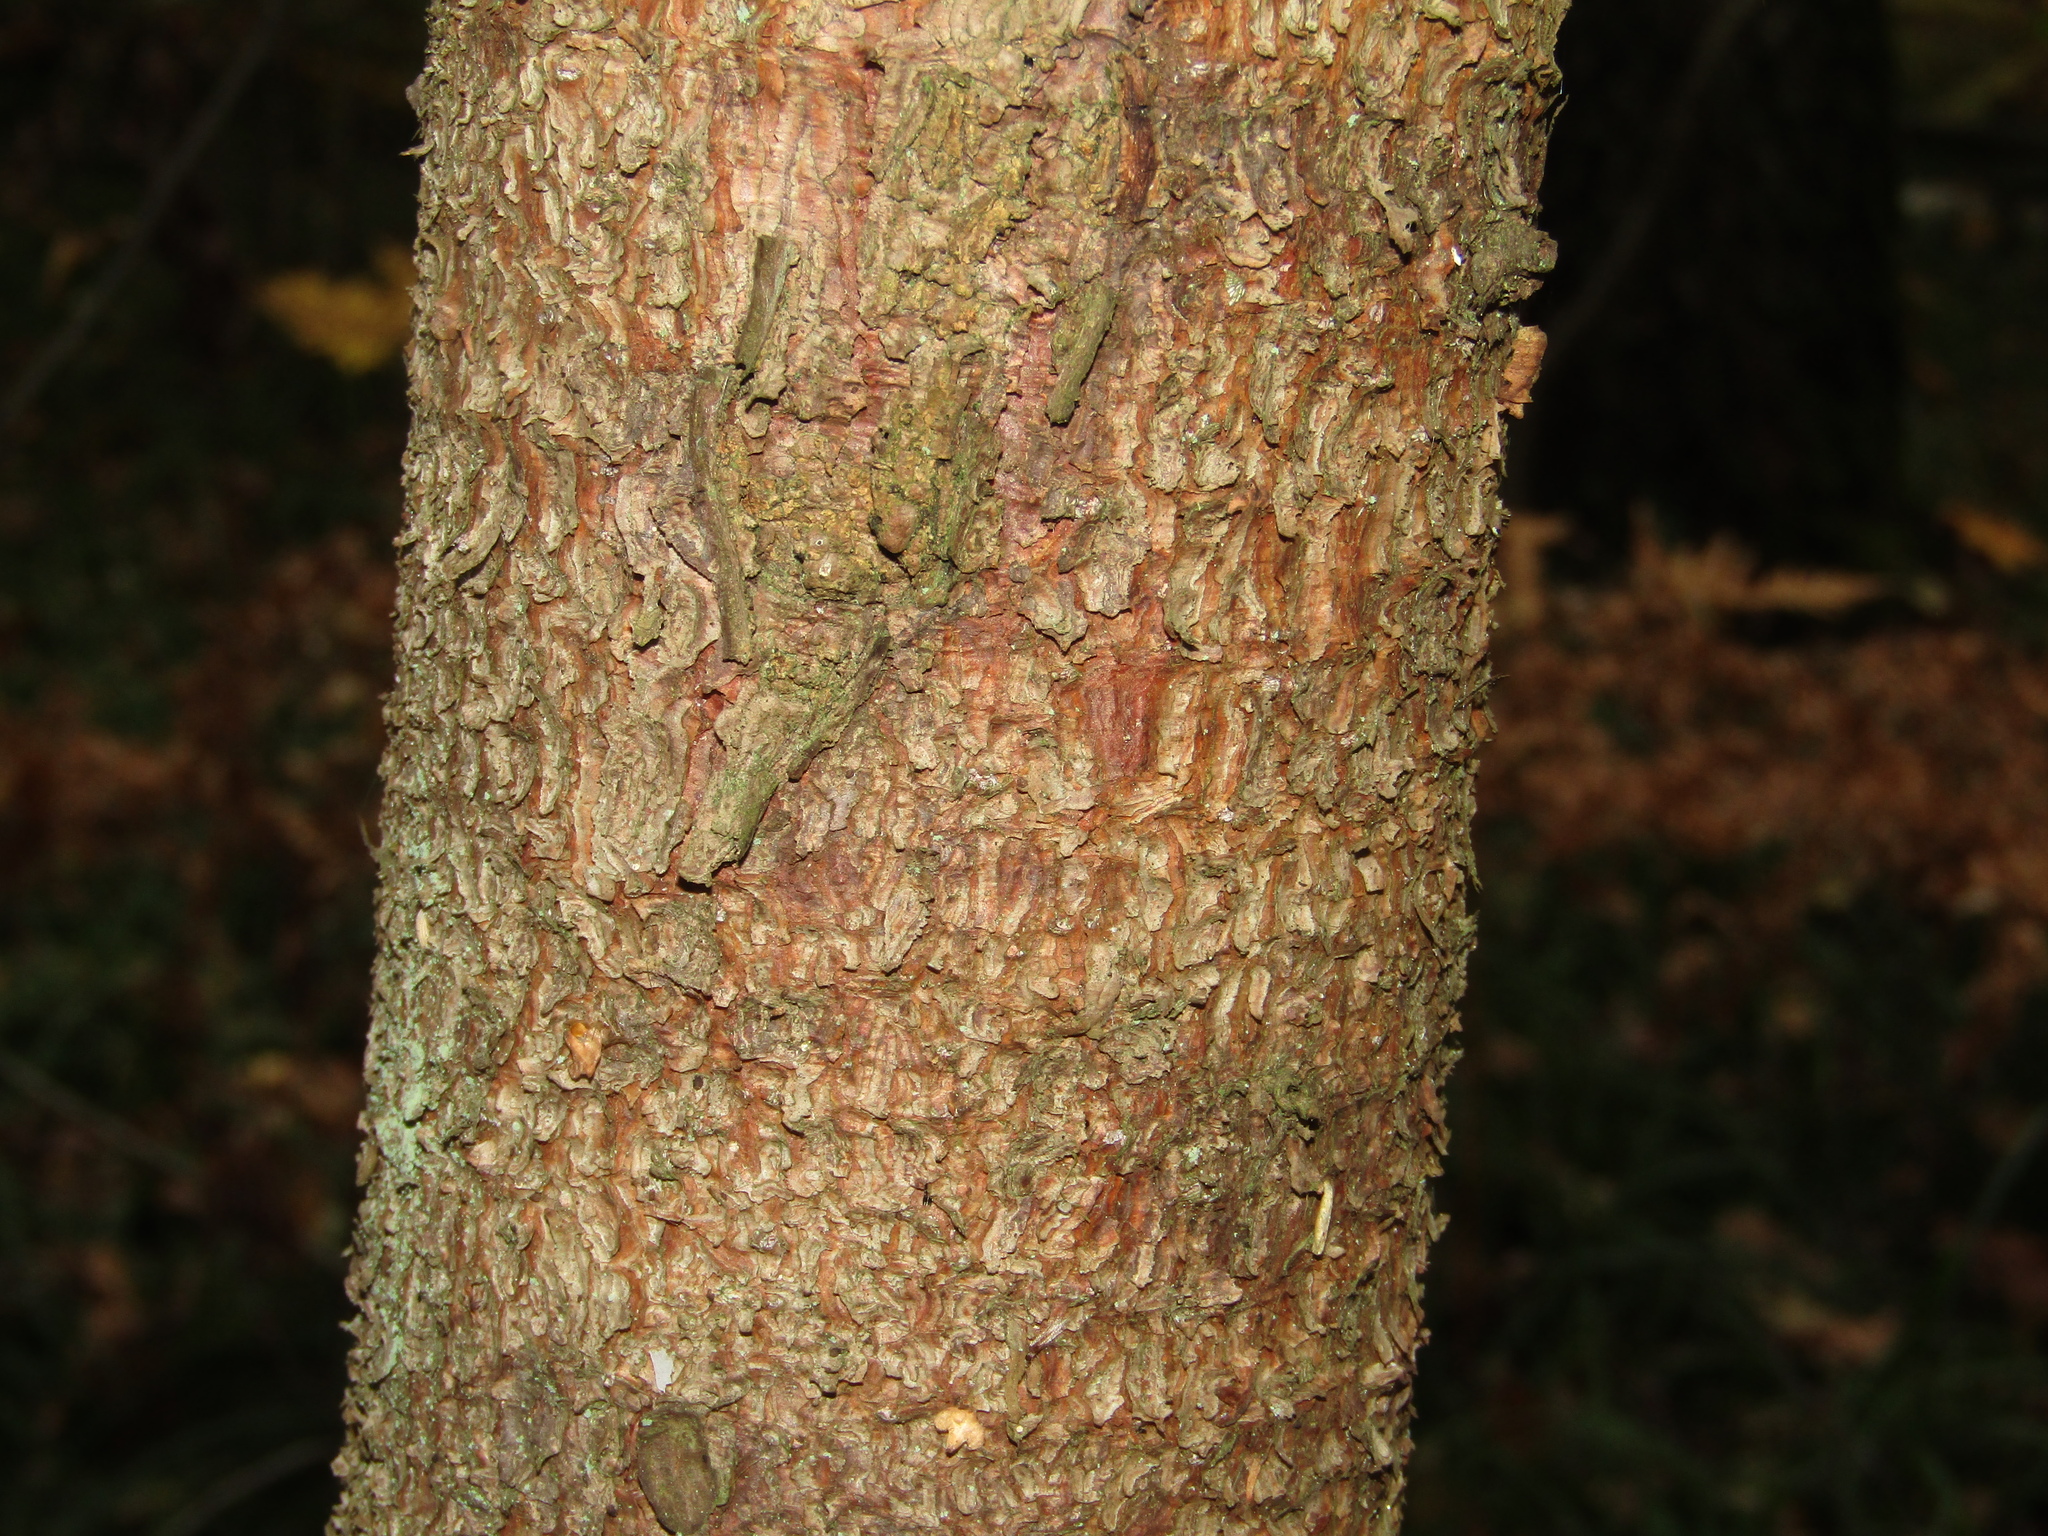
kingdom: Plantae
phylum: Tracheophyta
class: Pinopsida
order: Pinales
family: Pinaceae
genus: Picea
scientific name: Picea abies
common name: Norway spruce
